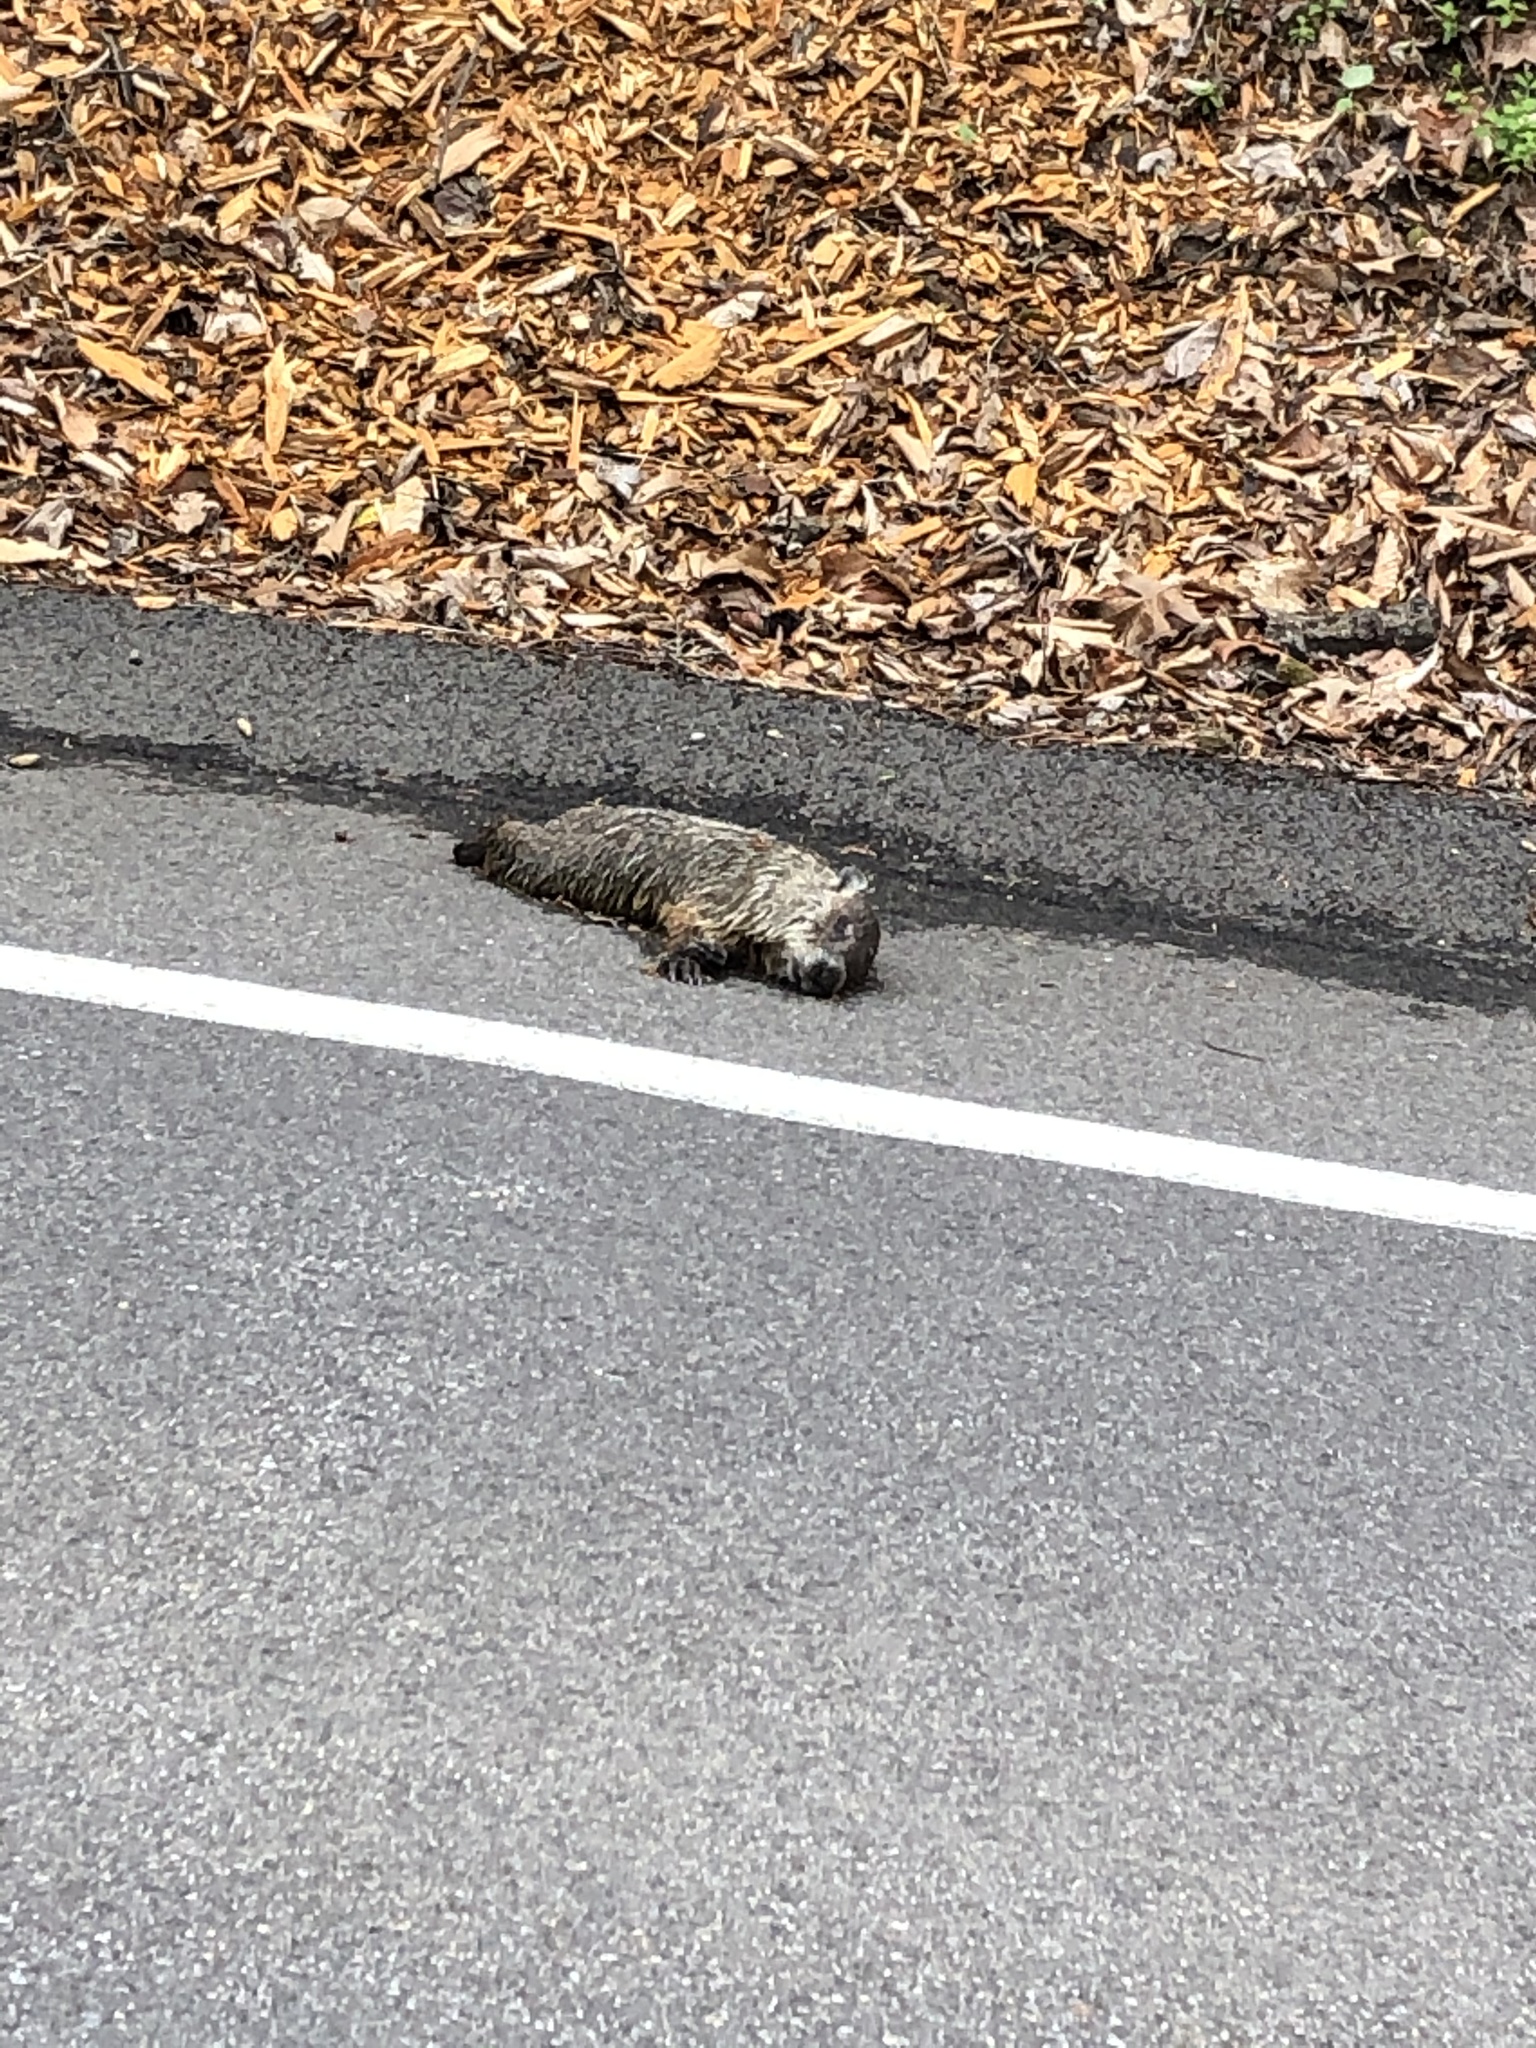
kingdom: Animalia
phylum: Chordata
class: Mammalia
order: Rodentia
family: Sciuridae
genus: Marmota
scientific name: Marmota monax
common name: Groundhog
